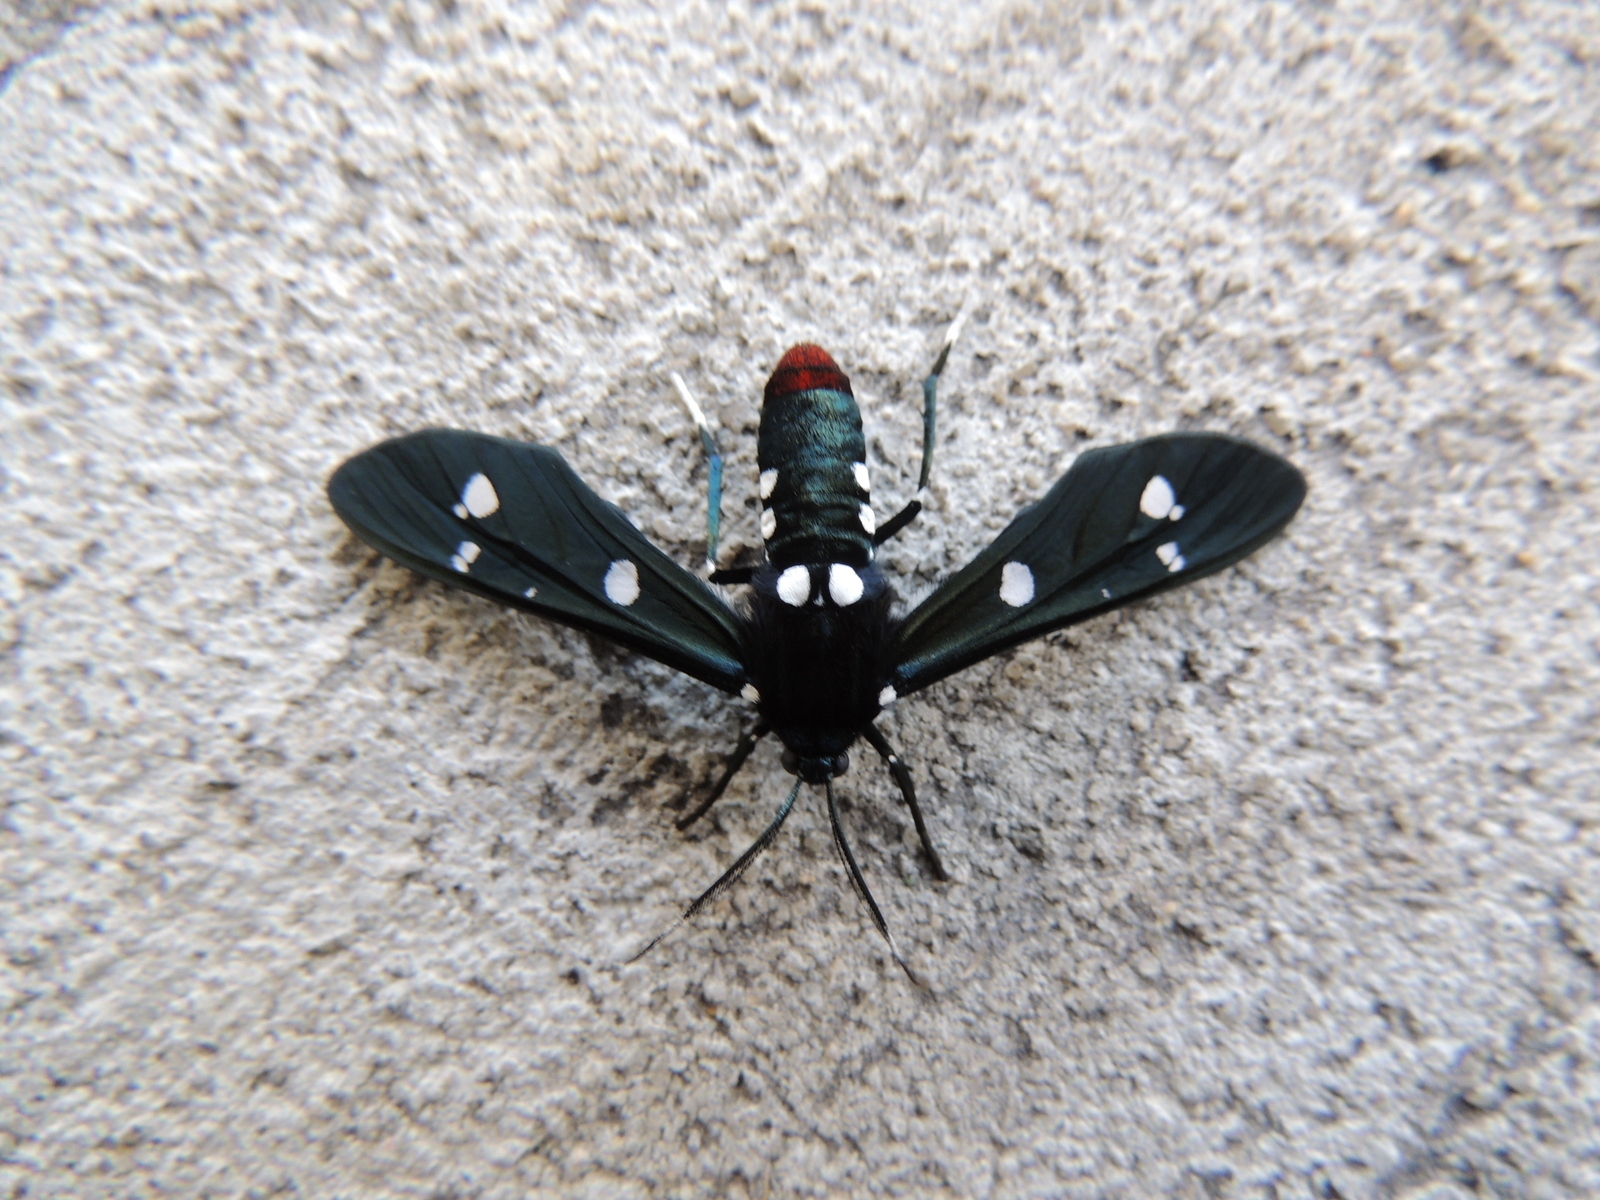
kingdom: Animalia
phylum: Arthropoda
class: Insecta
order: Lepidoptera
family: Erebidae
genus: Syntomeida
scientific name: Syntomeida epilais
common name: Polka-dot wasp moth
